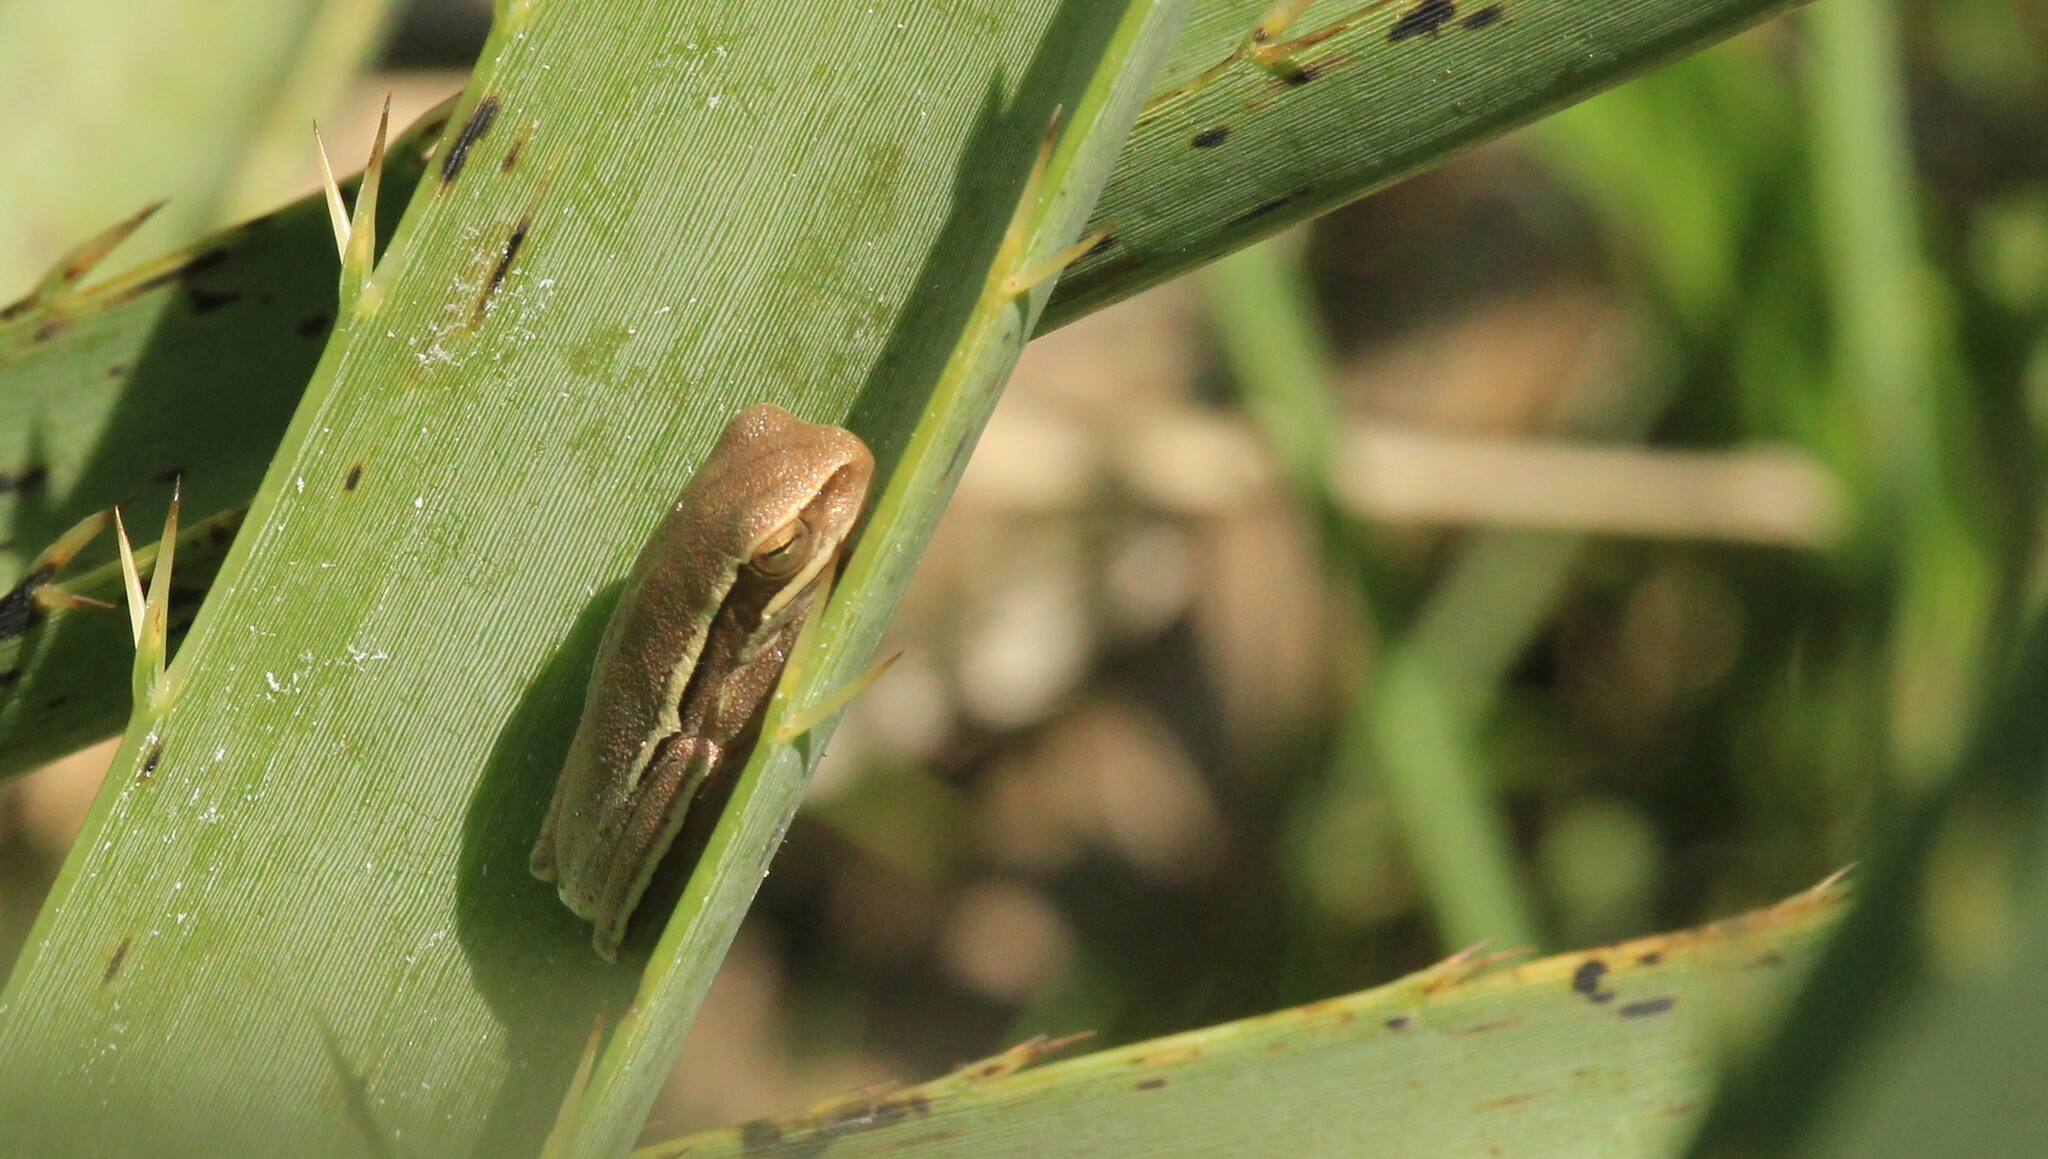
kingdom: Animalia
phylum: Chordata
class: Amphibia
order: Anura
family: Hylidae
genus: Boana
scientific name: Boana pulchella
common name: Montevideo treefrog
